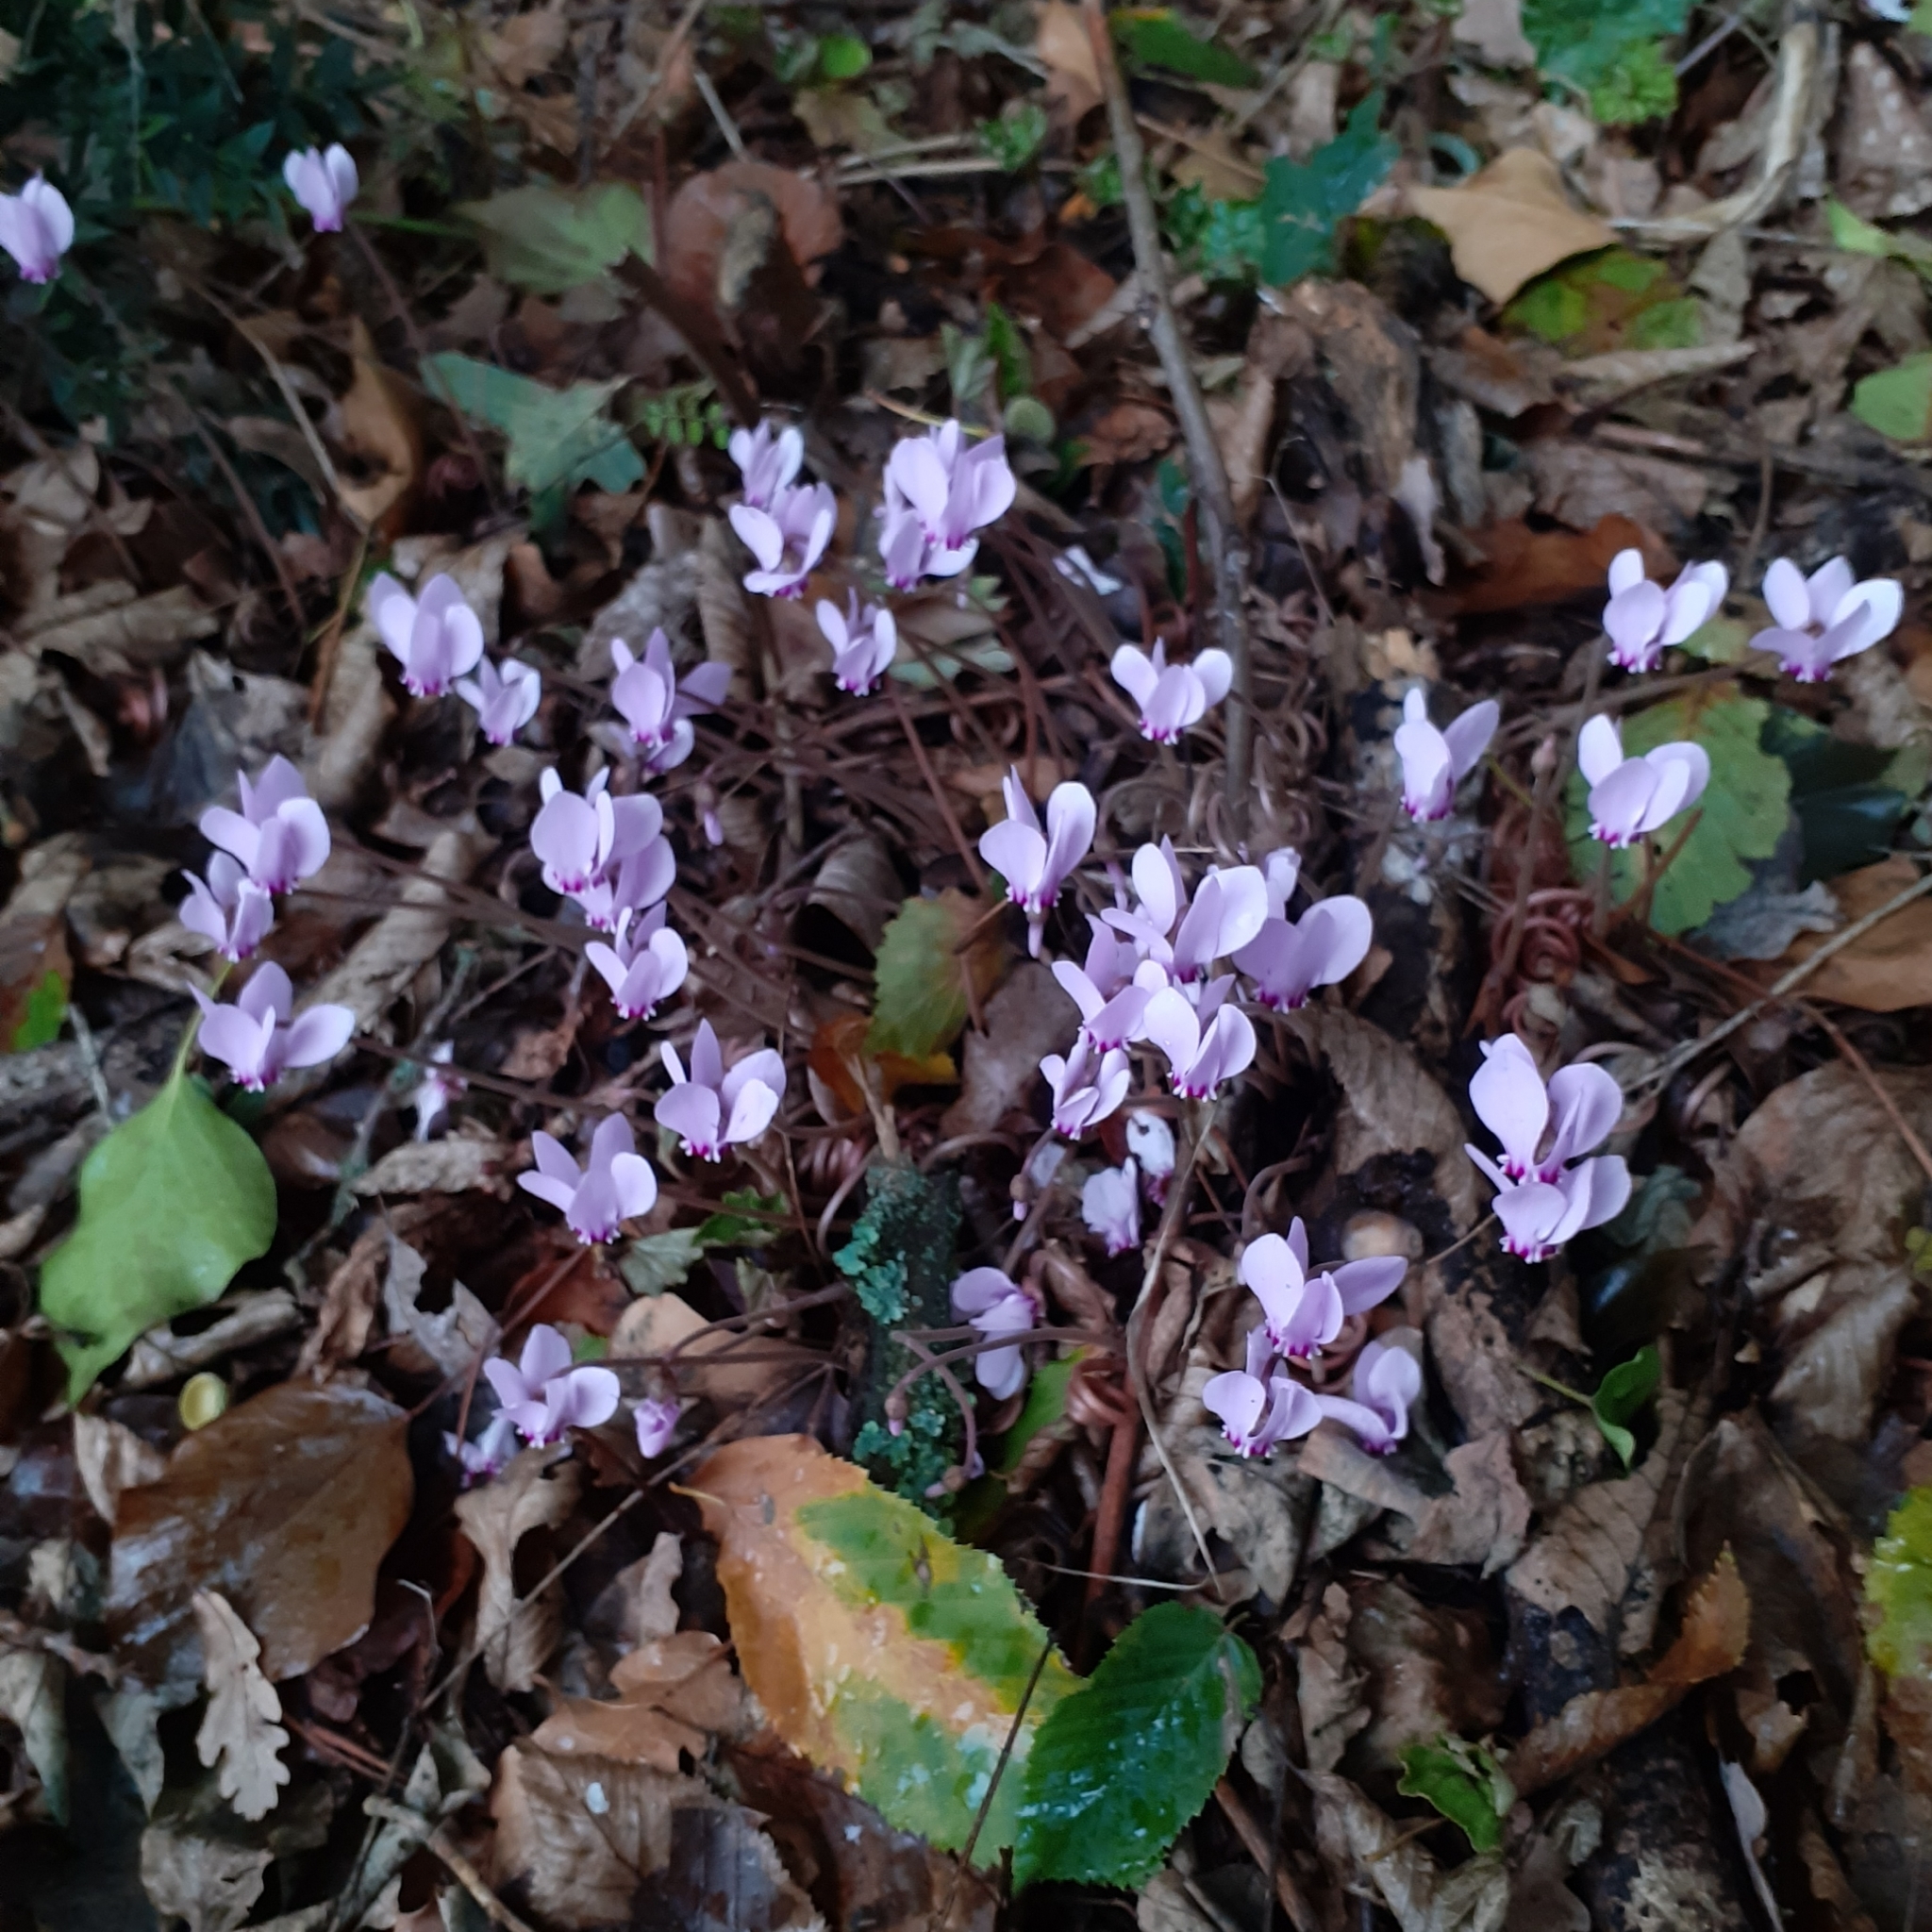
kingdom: Plantae
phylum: Tracheophyta
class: Magnoliopsida
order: Ericales
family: Primulaceae
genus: Cyclamen
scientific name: Cyclamen hederifolium
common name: Sowbread
